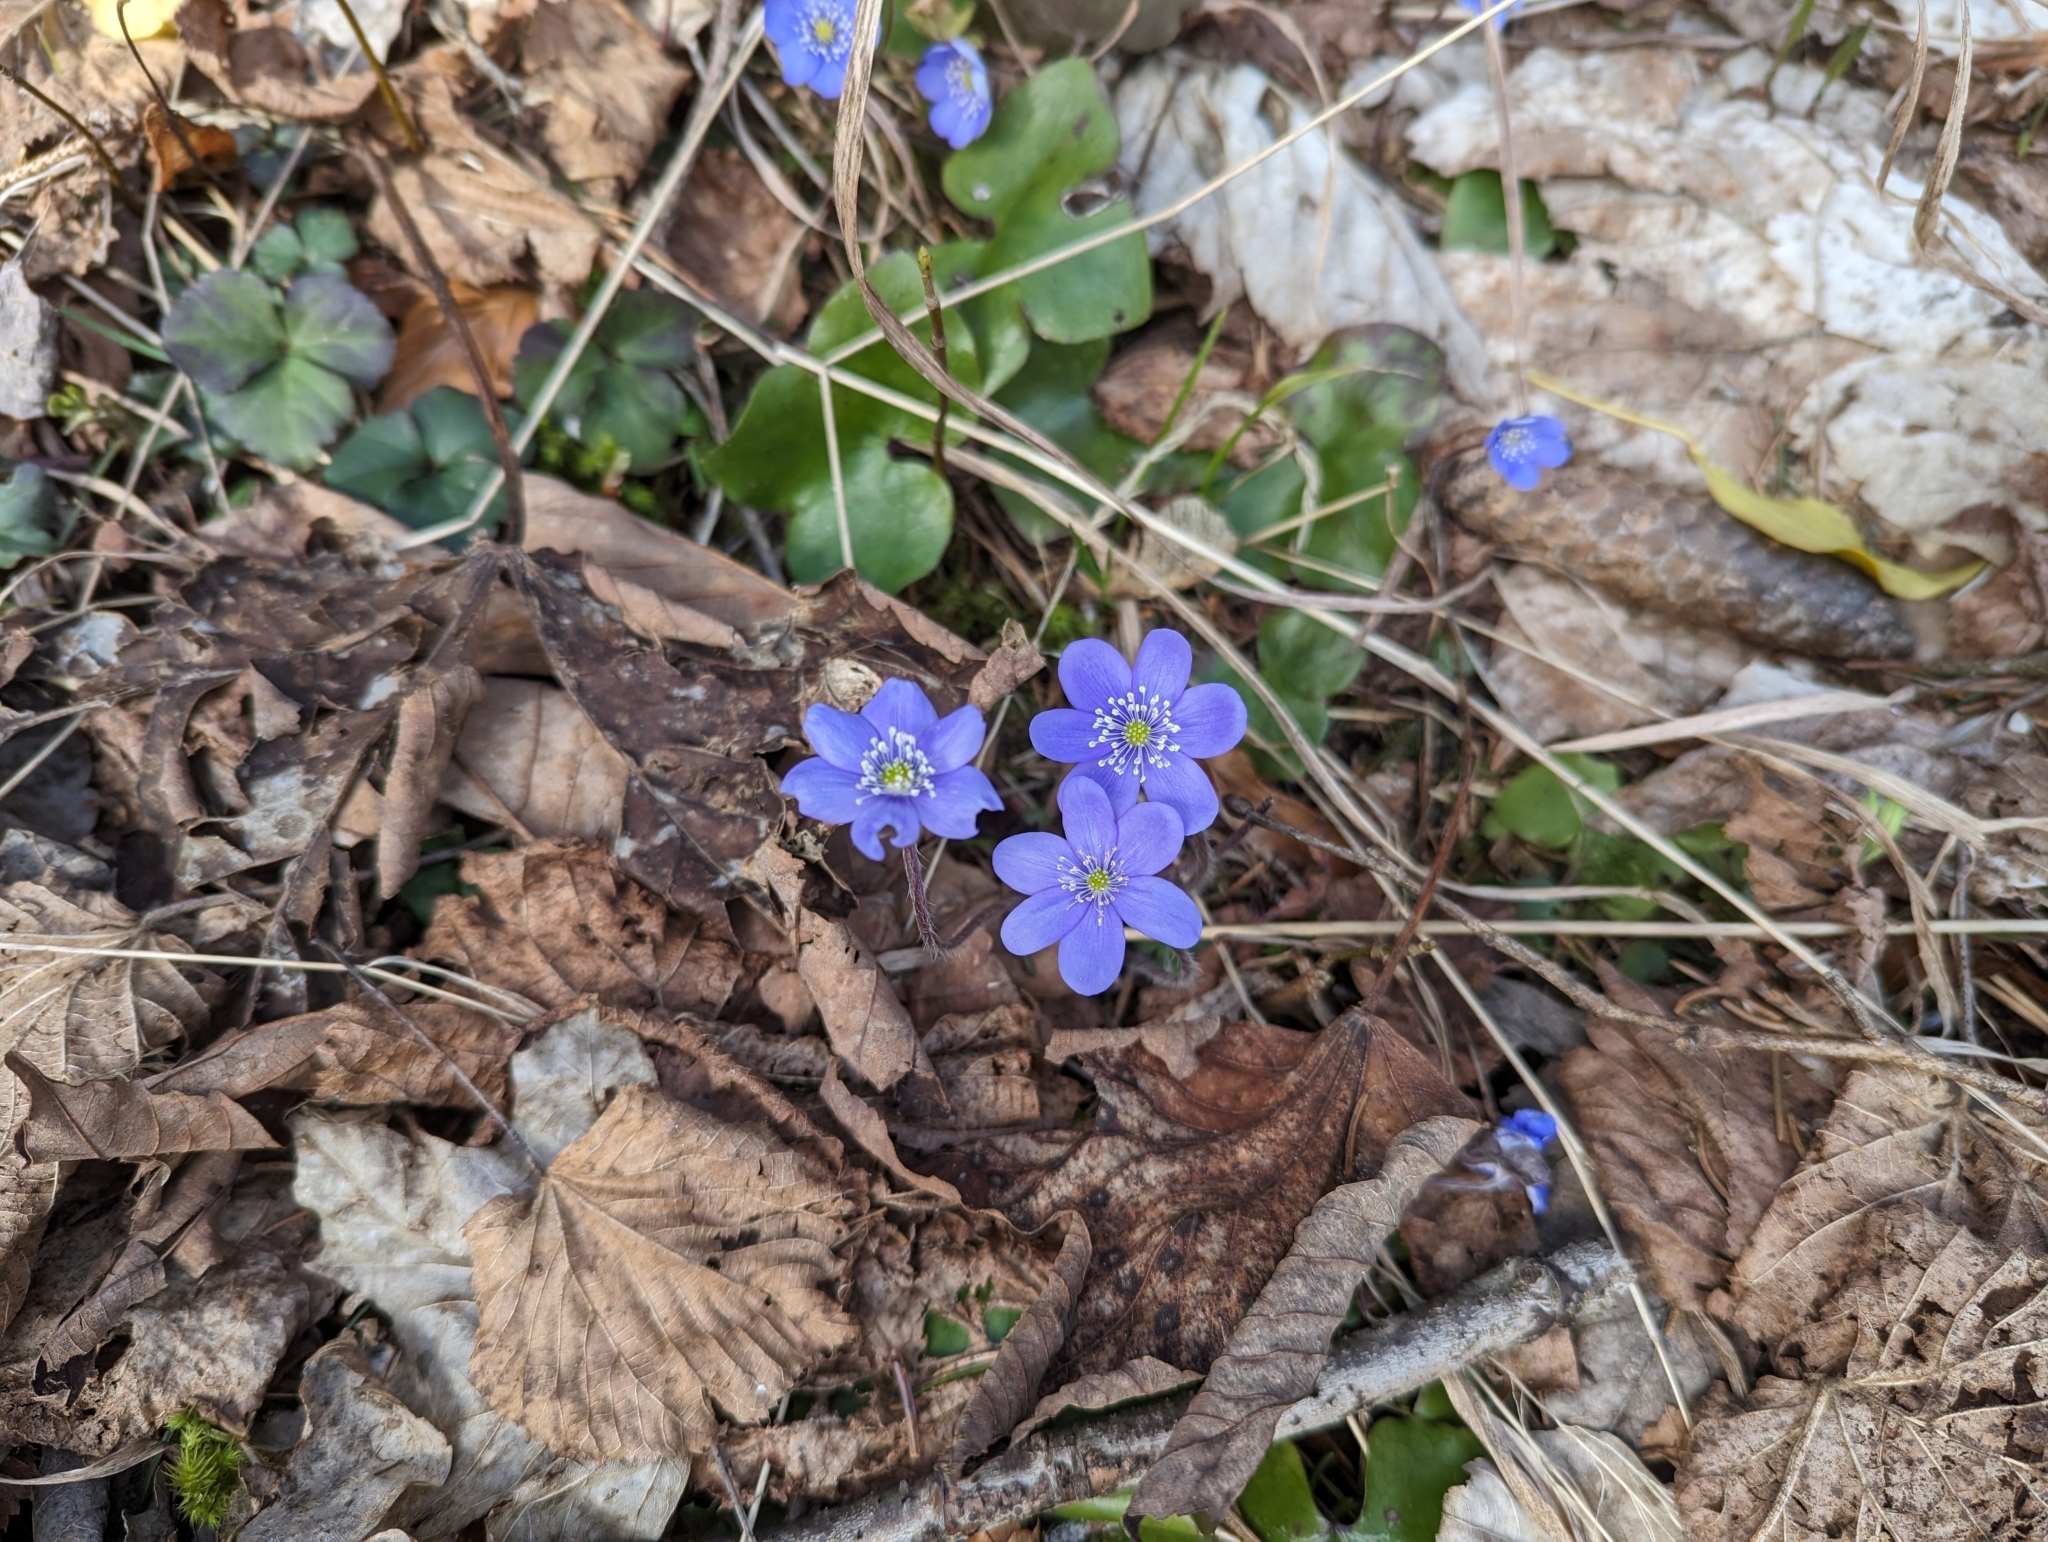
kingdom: Plantae
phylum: Tracheophyta
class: Magnoliopsida
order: Ranunculales
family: Ranunculaceae
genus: Hepatica
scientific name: Hepatica nobilis
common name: Liverleaf
